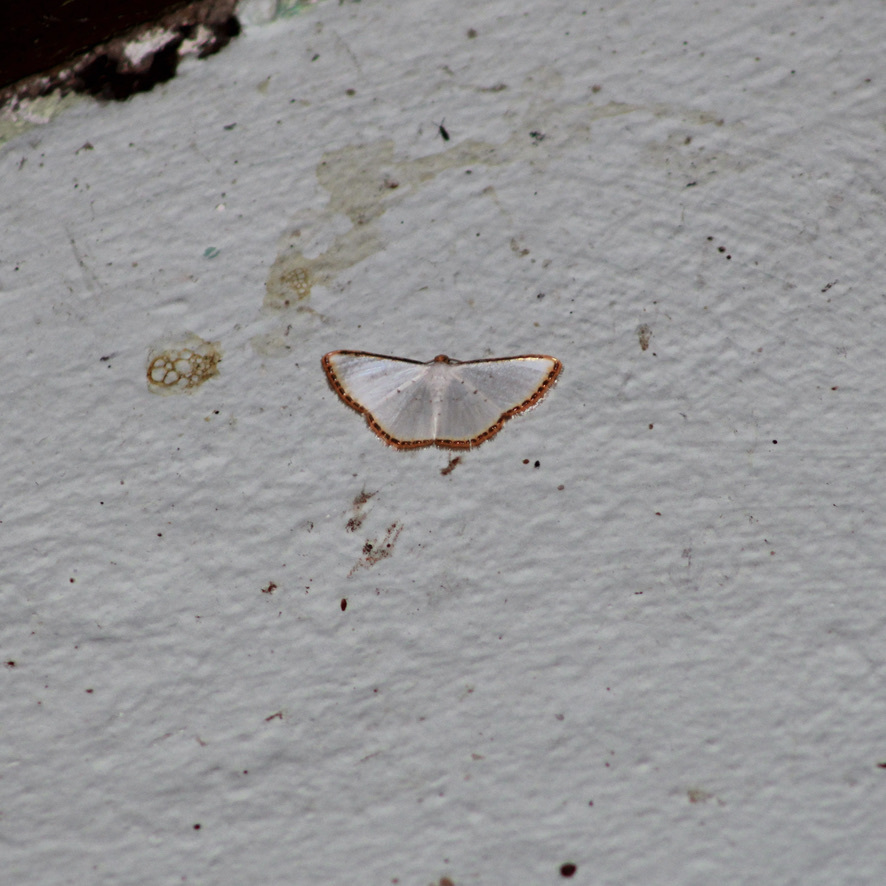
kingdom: Animalia
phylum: Arthropoda
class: Insecta
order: Lepidoptera
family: Geometridae
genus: Leuciris
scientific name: Leuciris fimbriaria
